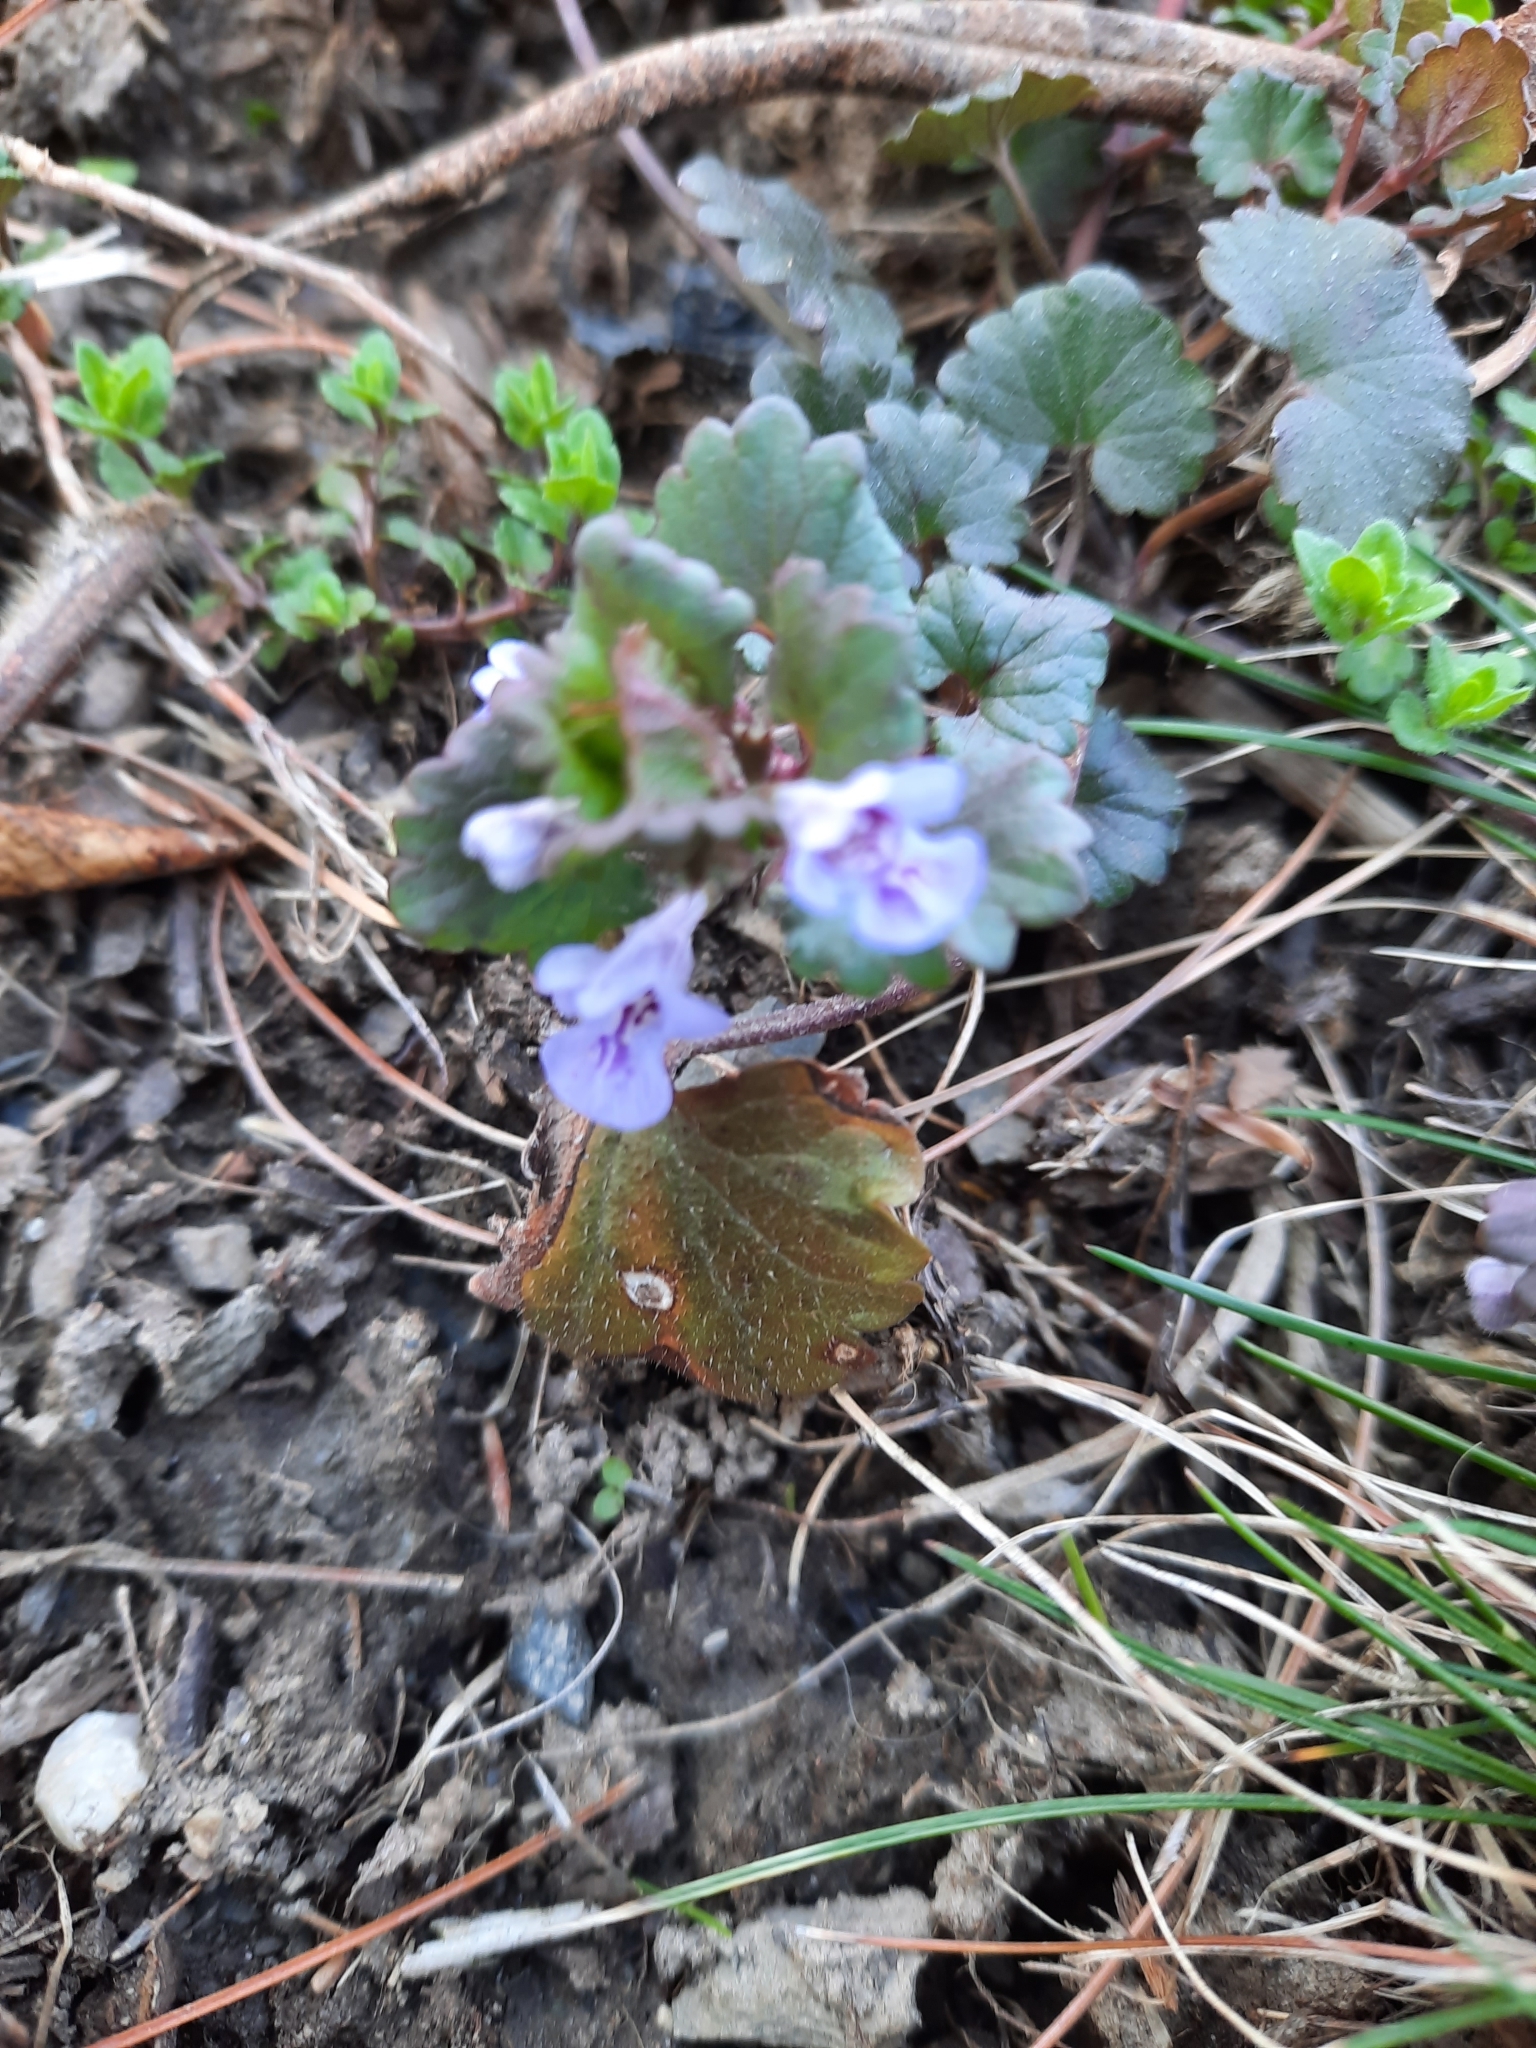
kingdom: Plantae
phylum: Tracheophyta
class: Magnoliopsida
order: Lamiales
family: Lamiaceae
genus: Glechoma
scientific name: Glechoma hederacea
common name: Ground ivy
